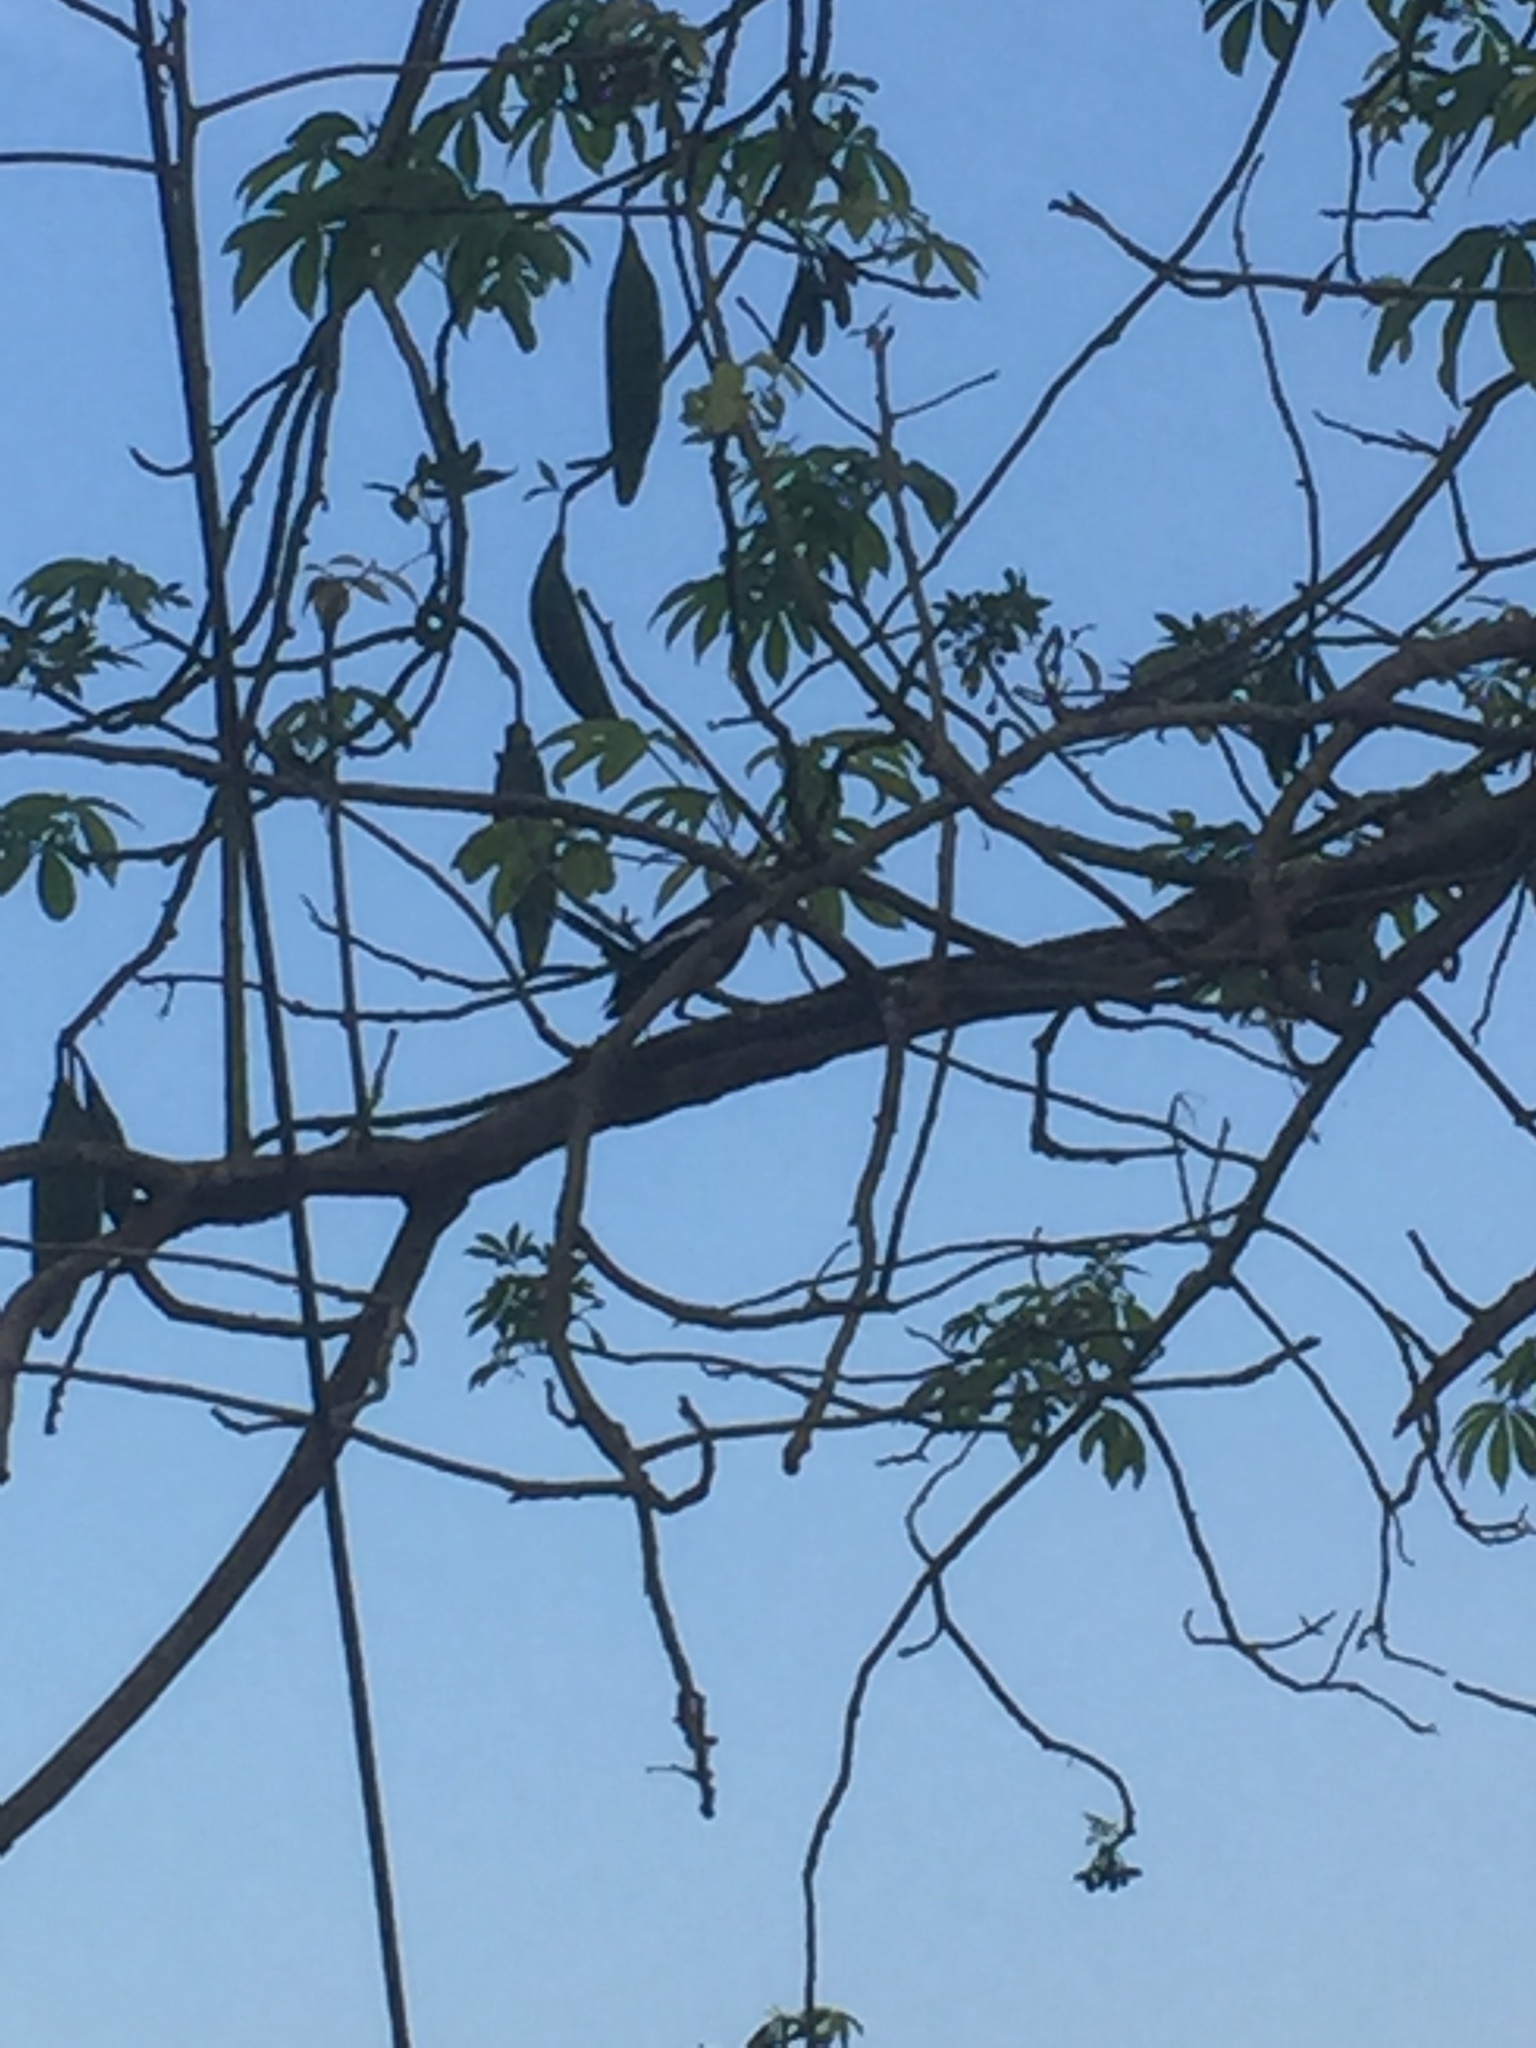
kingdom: Animalia
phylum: Chordata
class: Aves
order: Passeriformes
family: Muscicapidae
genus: Copsychus
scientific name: Copsychus saularis
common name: Oriental magpie-robin
